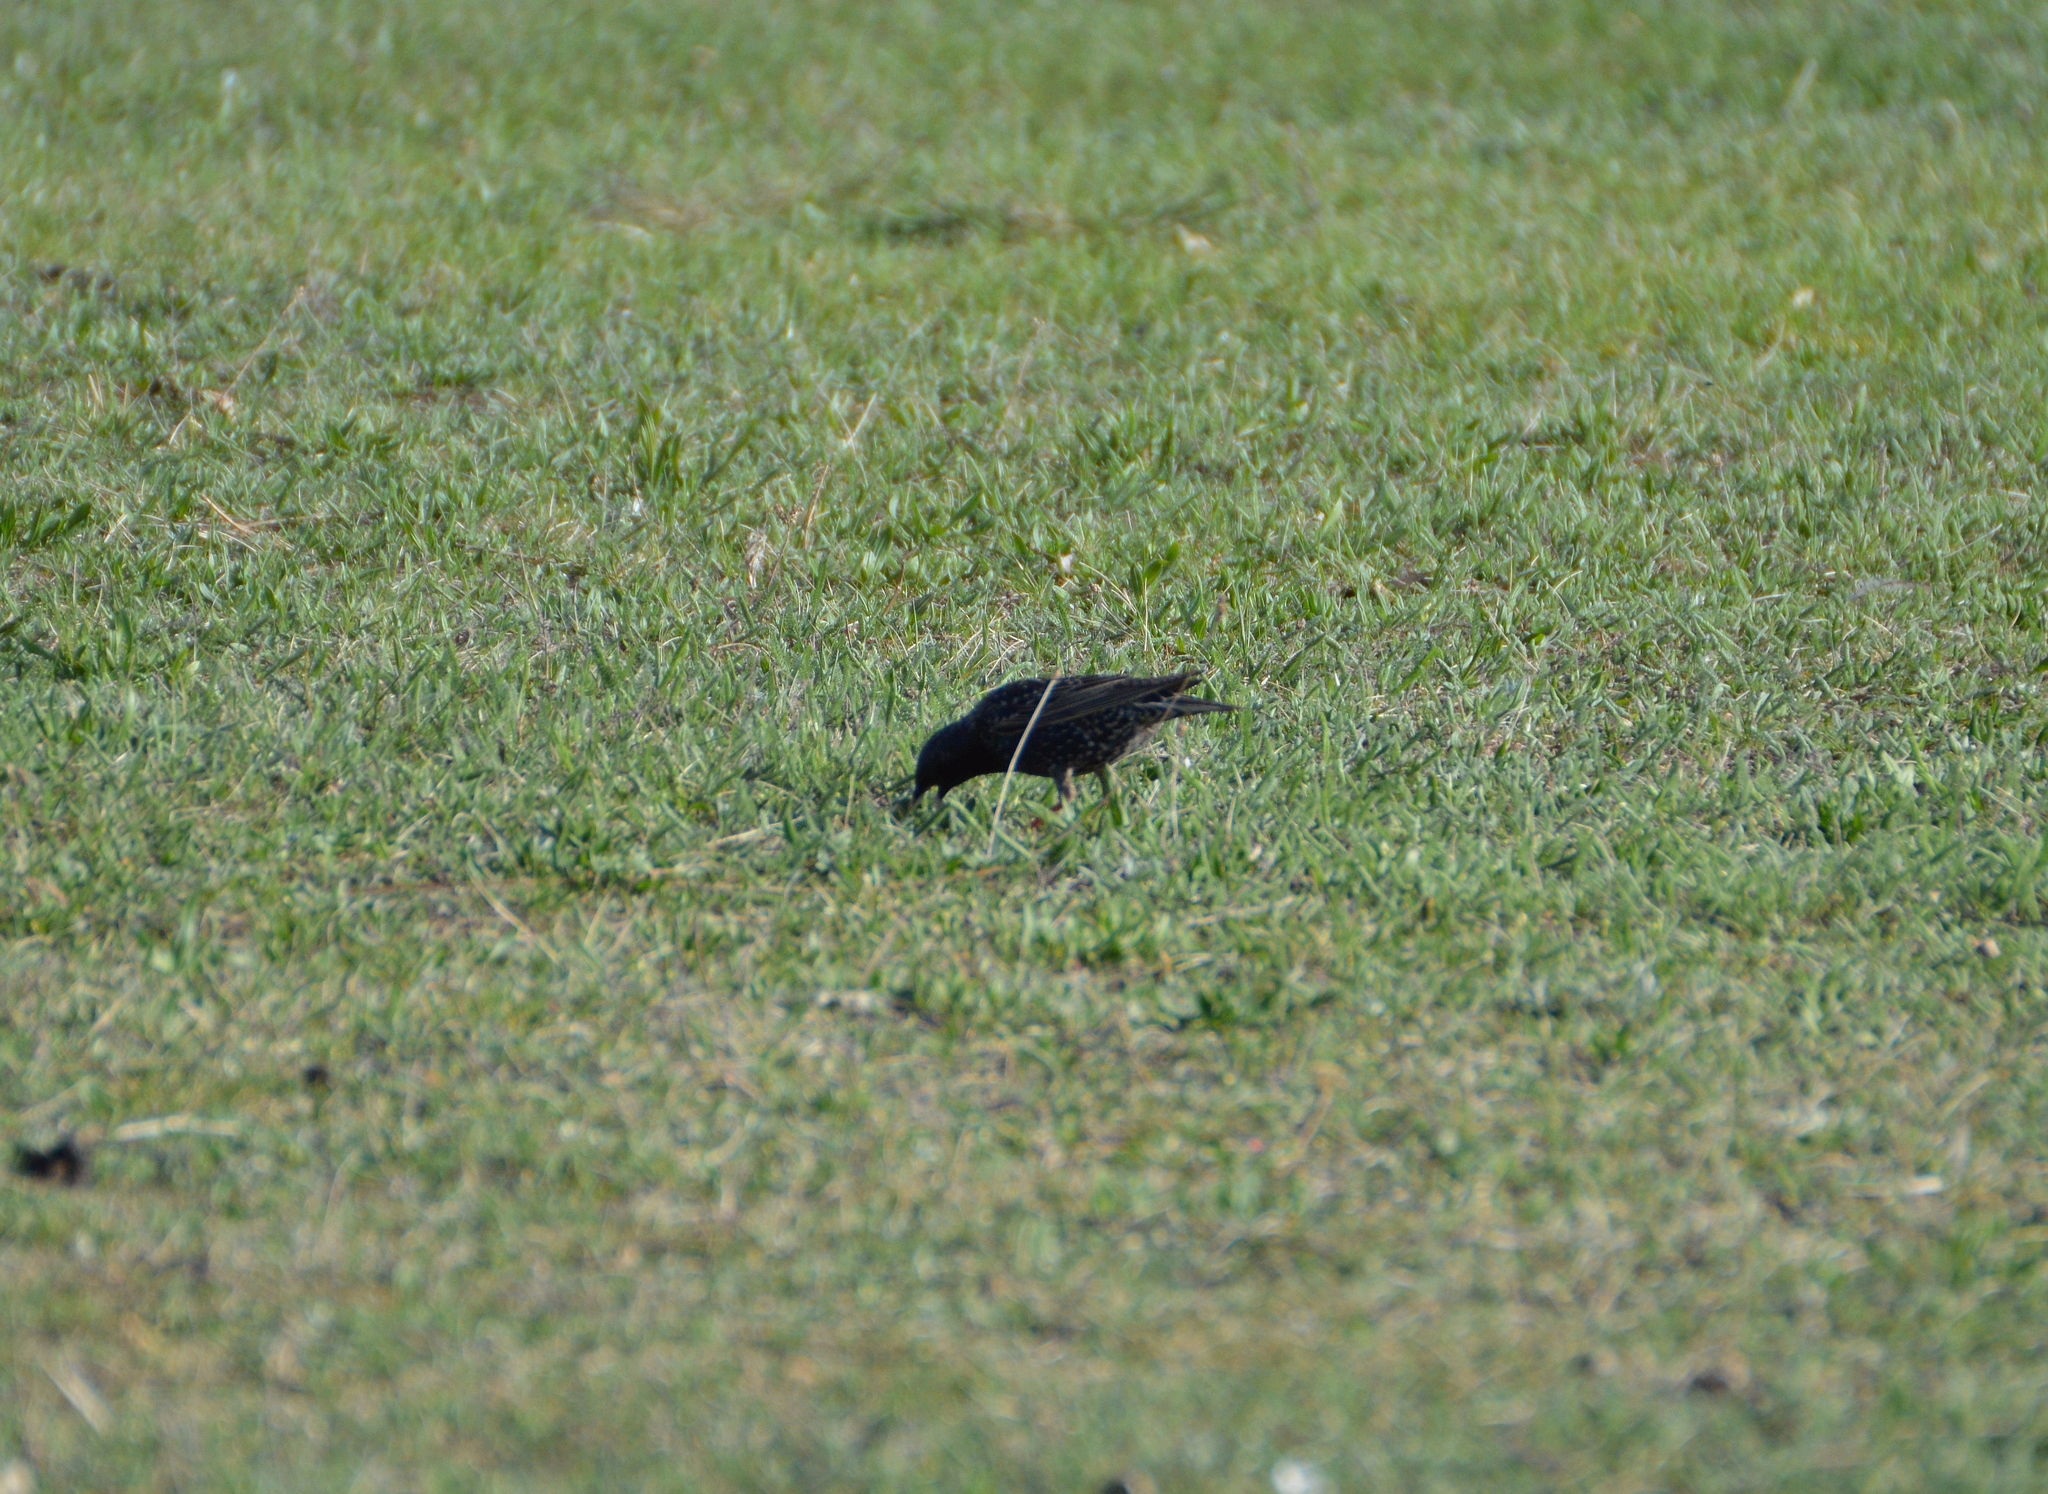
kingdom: Animalia
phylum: Chordata
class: Aves
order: Passeriformes
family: Sturnidae
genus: Sturnus
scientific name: Sturnus vulgaris
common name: Common starling
